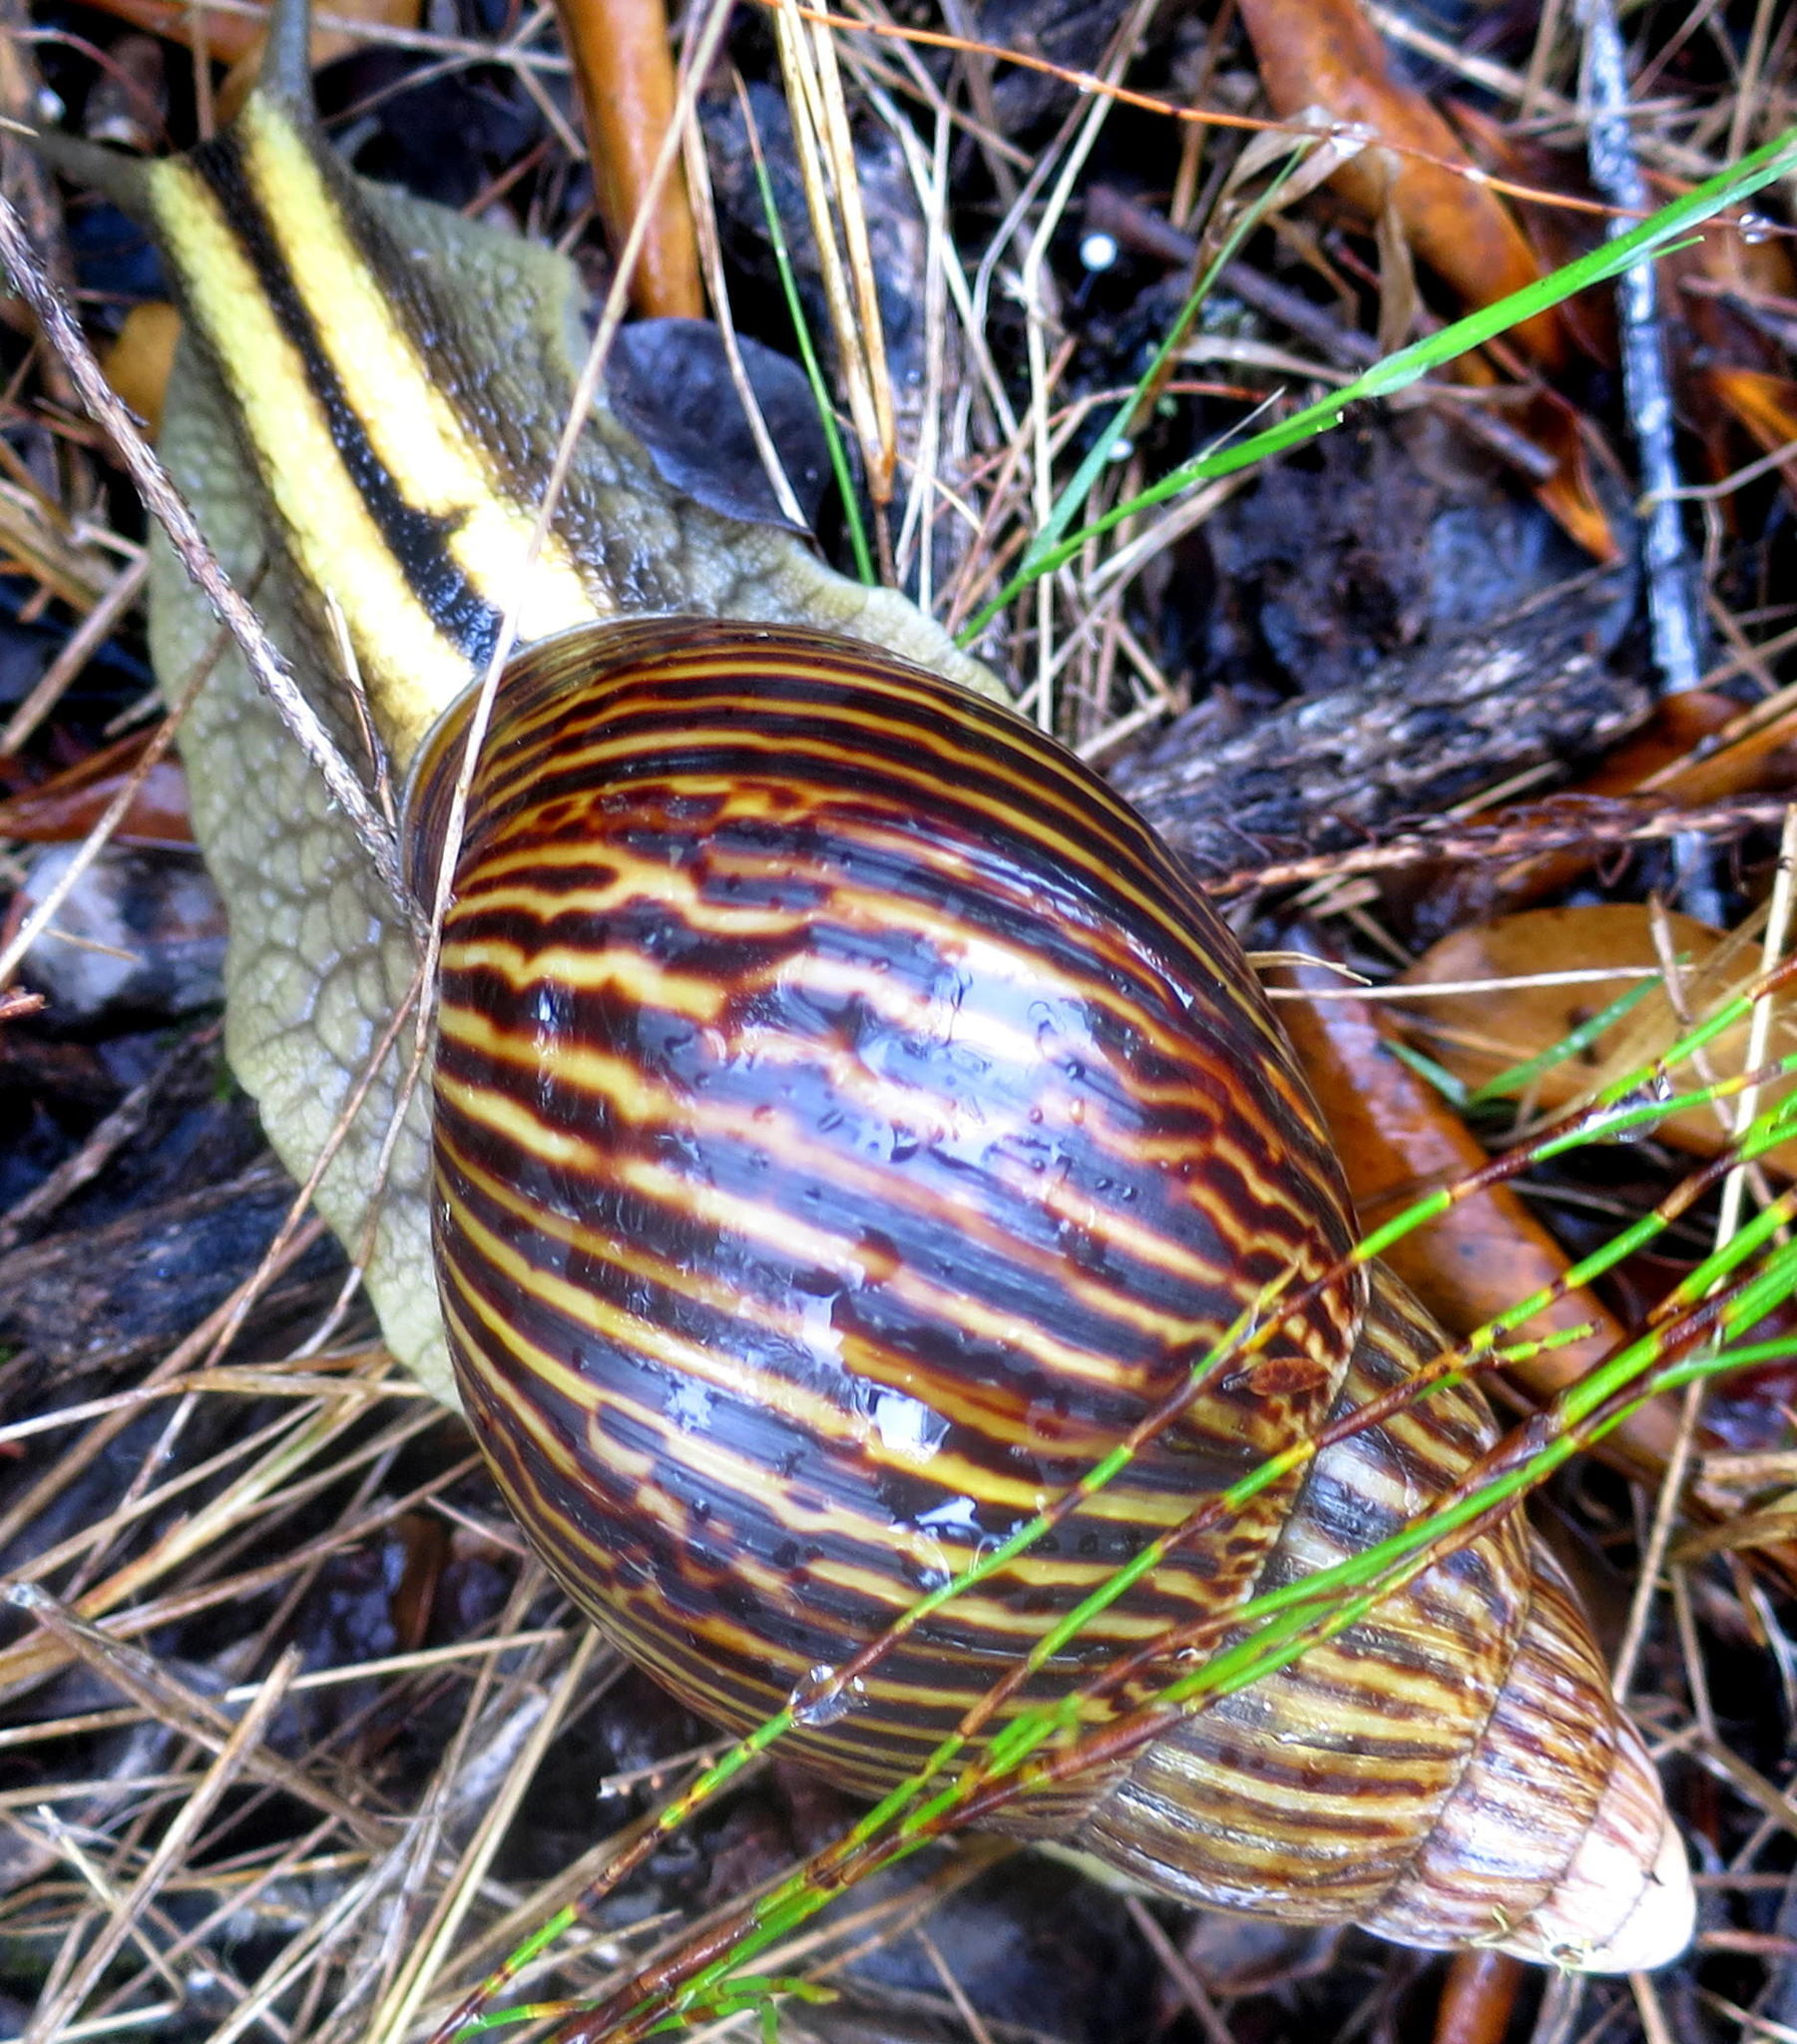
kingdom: Animalia
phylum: Mollusca
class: Gastropoda
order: Stylommatophora
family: Achatinidae
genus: Cochlitoma
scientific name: Cochlitoma zebra
